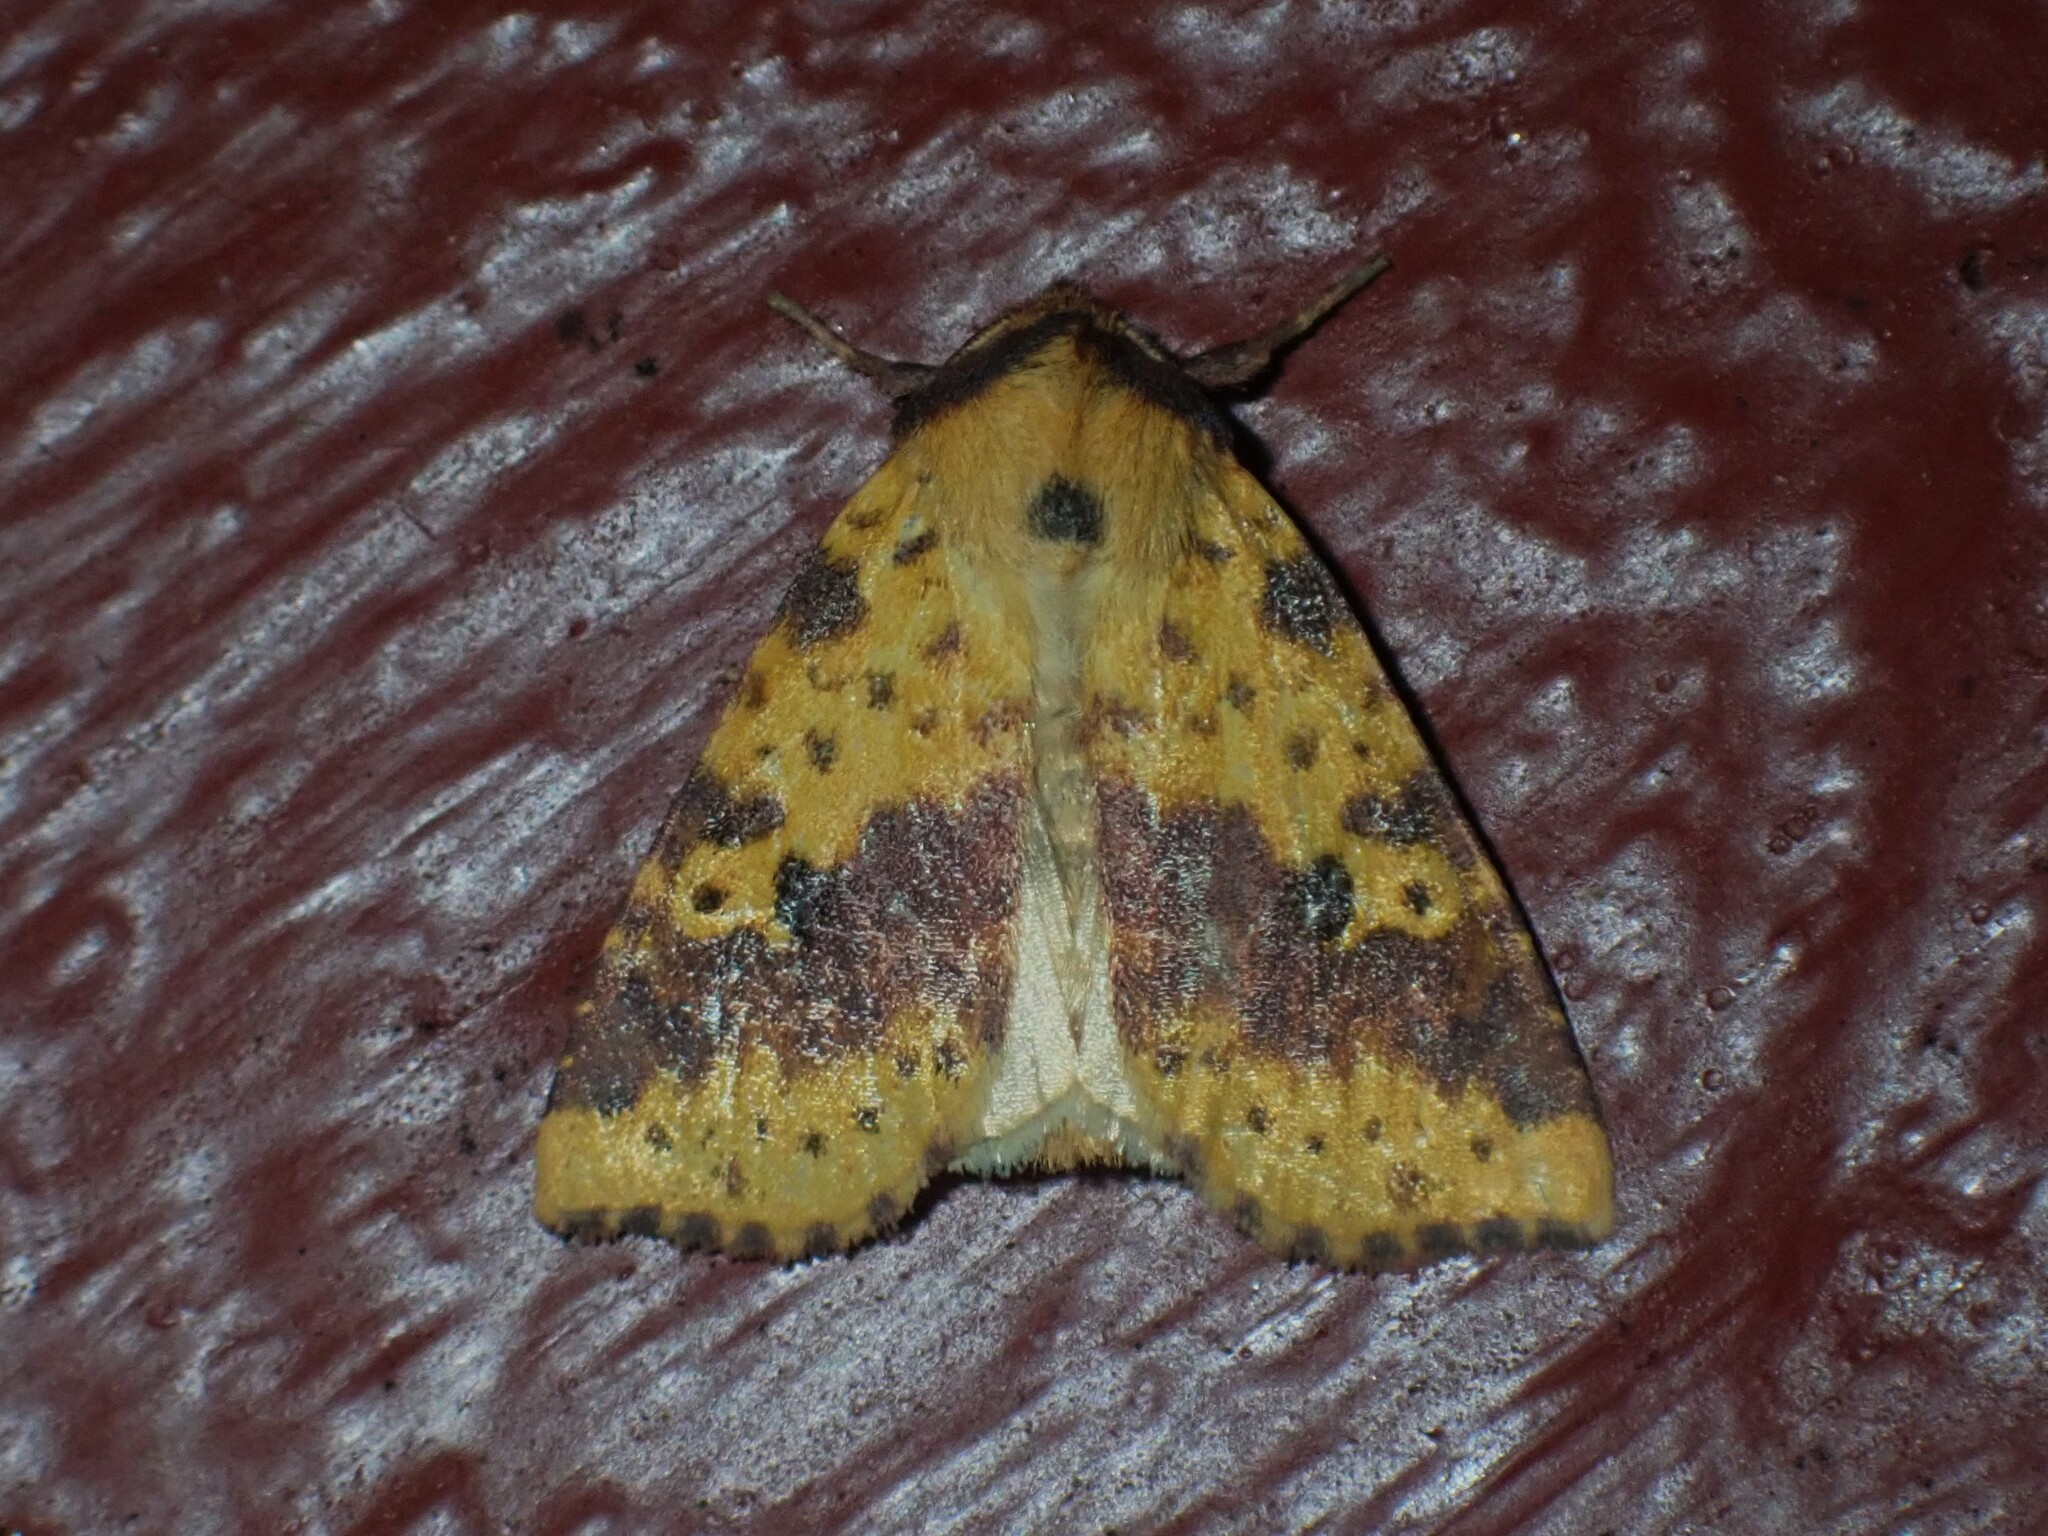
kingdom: Animalia
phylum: Arthropoda
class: Insecta
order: Lepidoptera
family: Noctuidae
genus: Xanthia
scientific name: Xanthia tatago
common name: Pink-banded sallow
